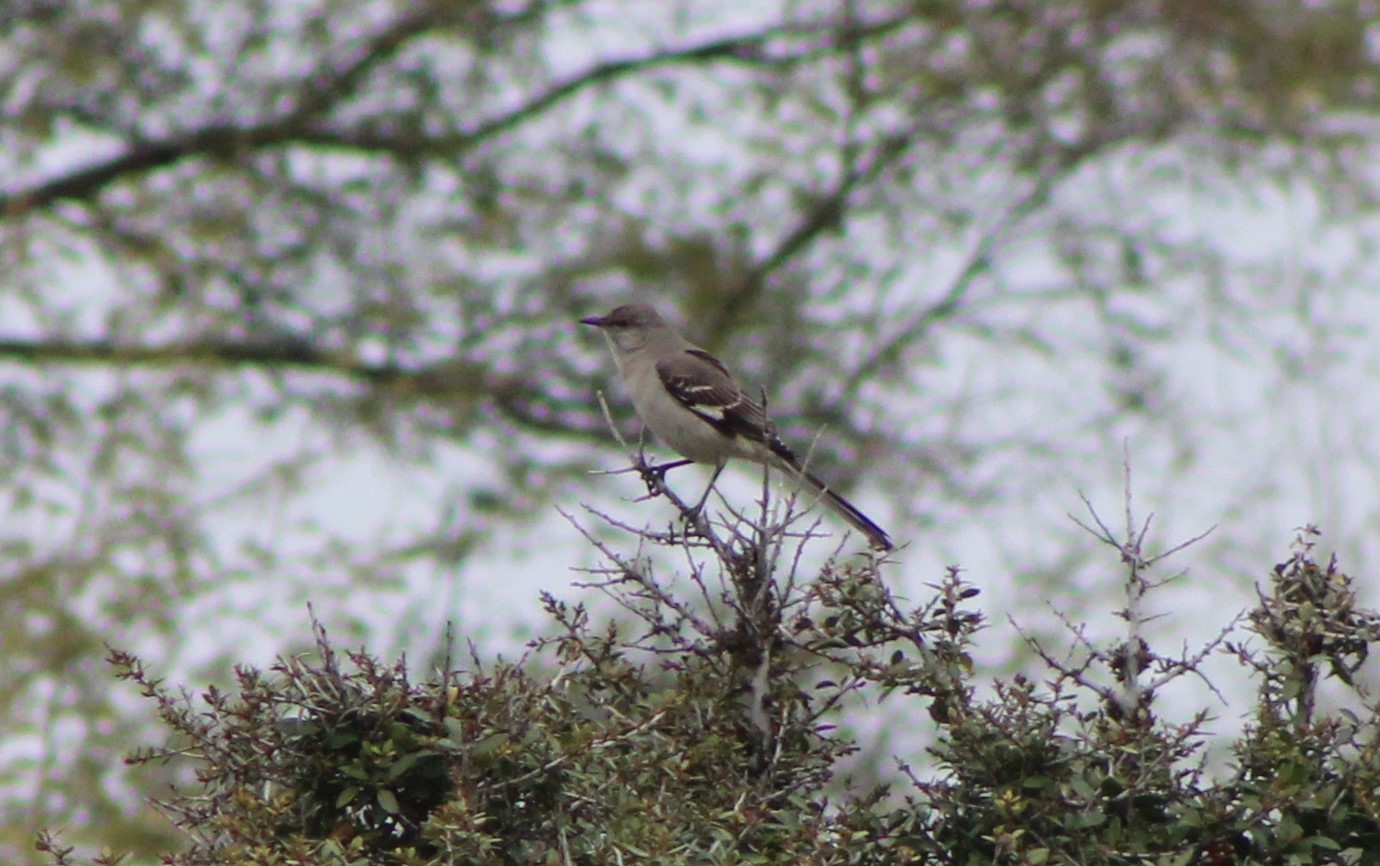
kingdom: Animalia
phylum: Chordata
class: Aves
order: Passeriformes
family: Mimidae
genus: Mimus
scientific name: Mimus polyglottos
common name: Northern mockingbird
